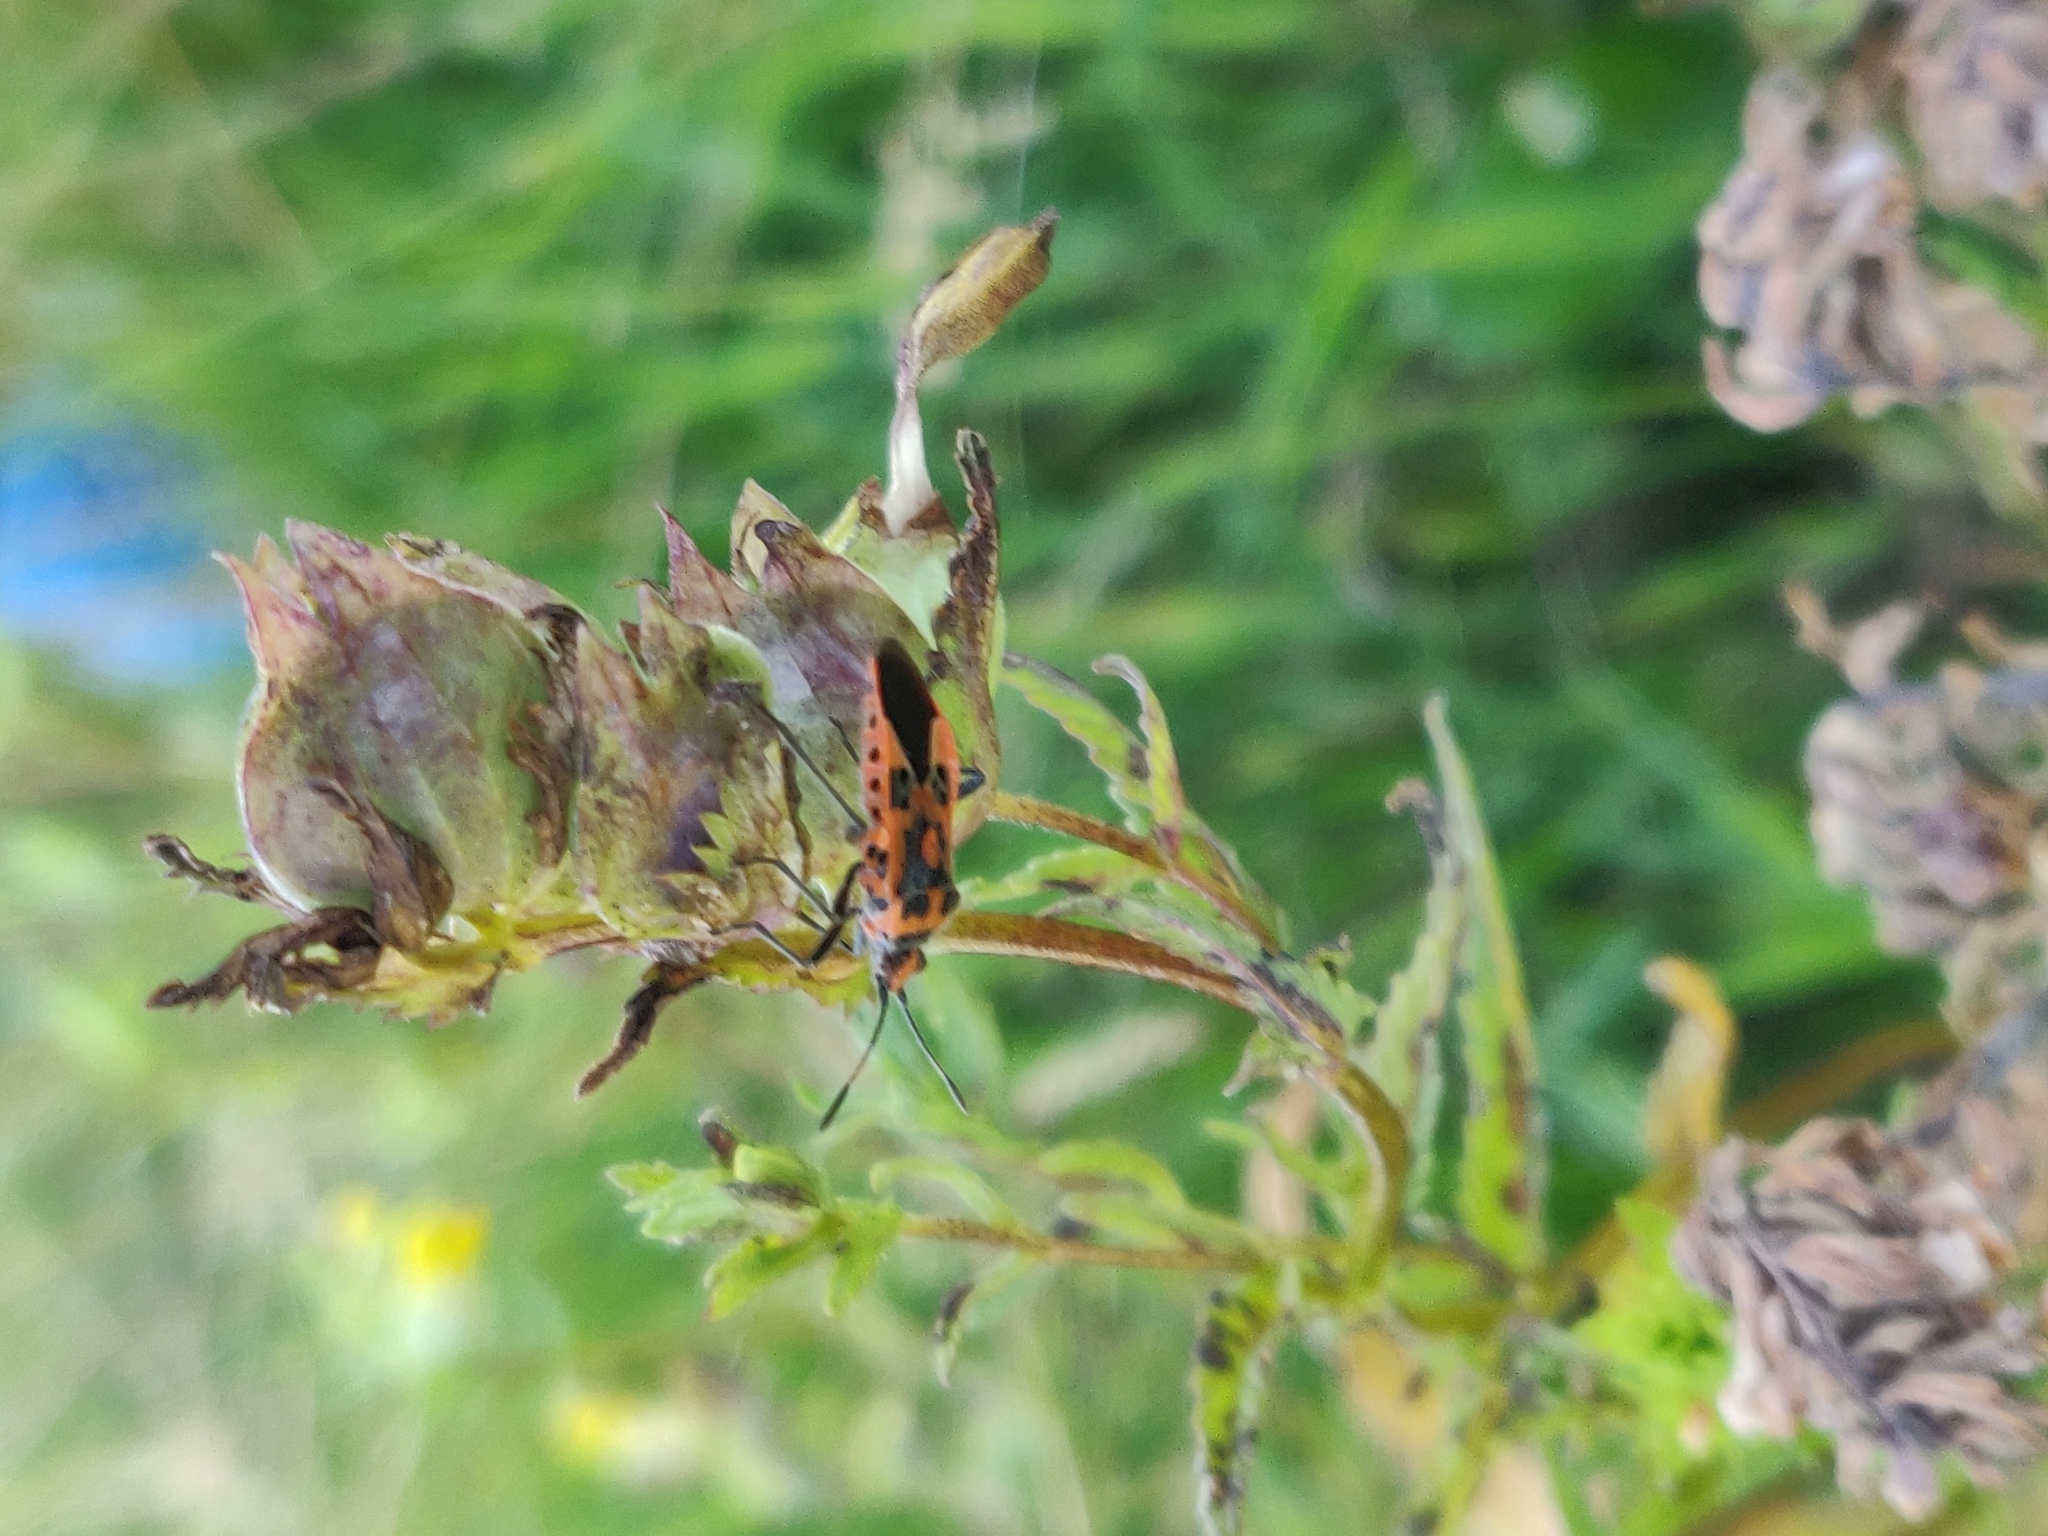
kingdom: Animalia
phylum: Arthropoda
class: Insecta
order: Hemiptera
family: Rhopalidae
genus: Corizus
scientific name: Corizus hyoscyami
